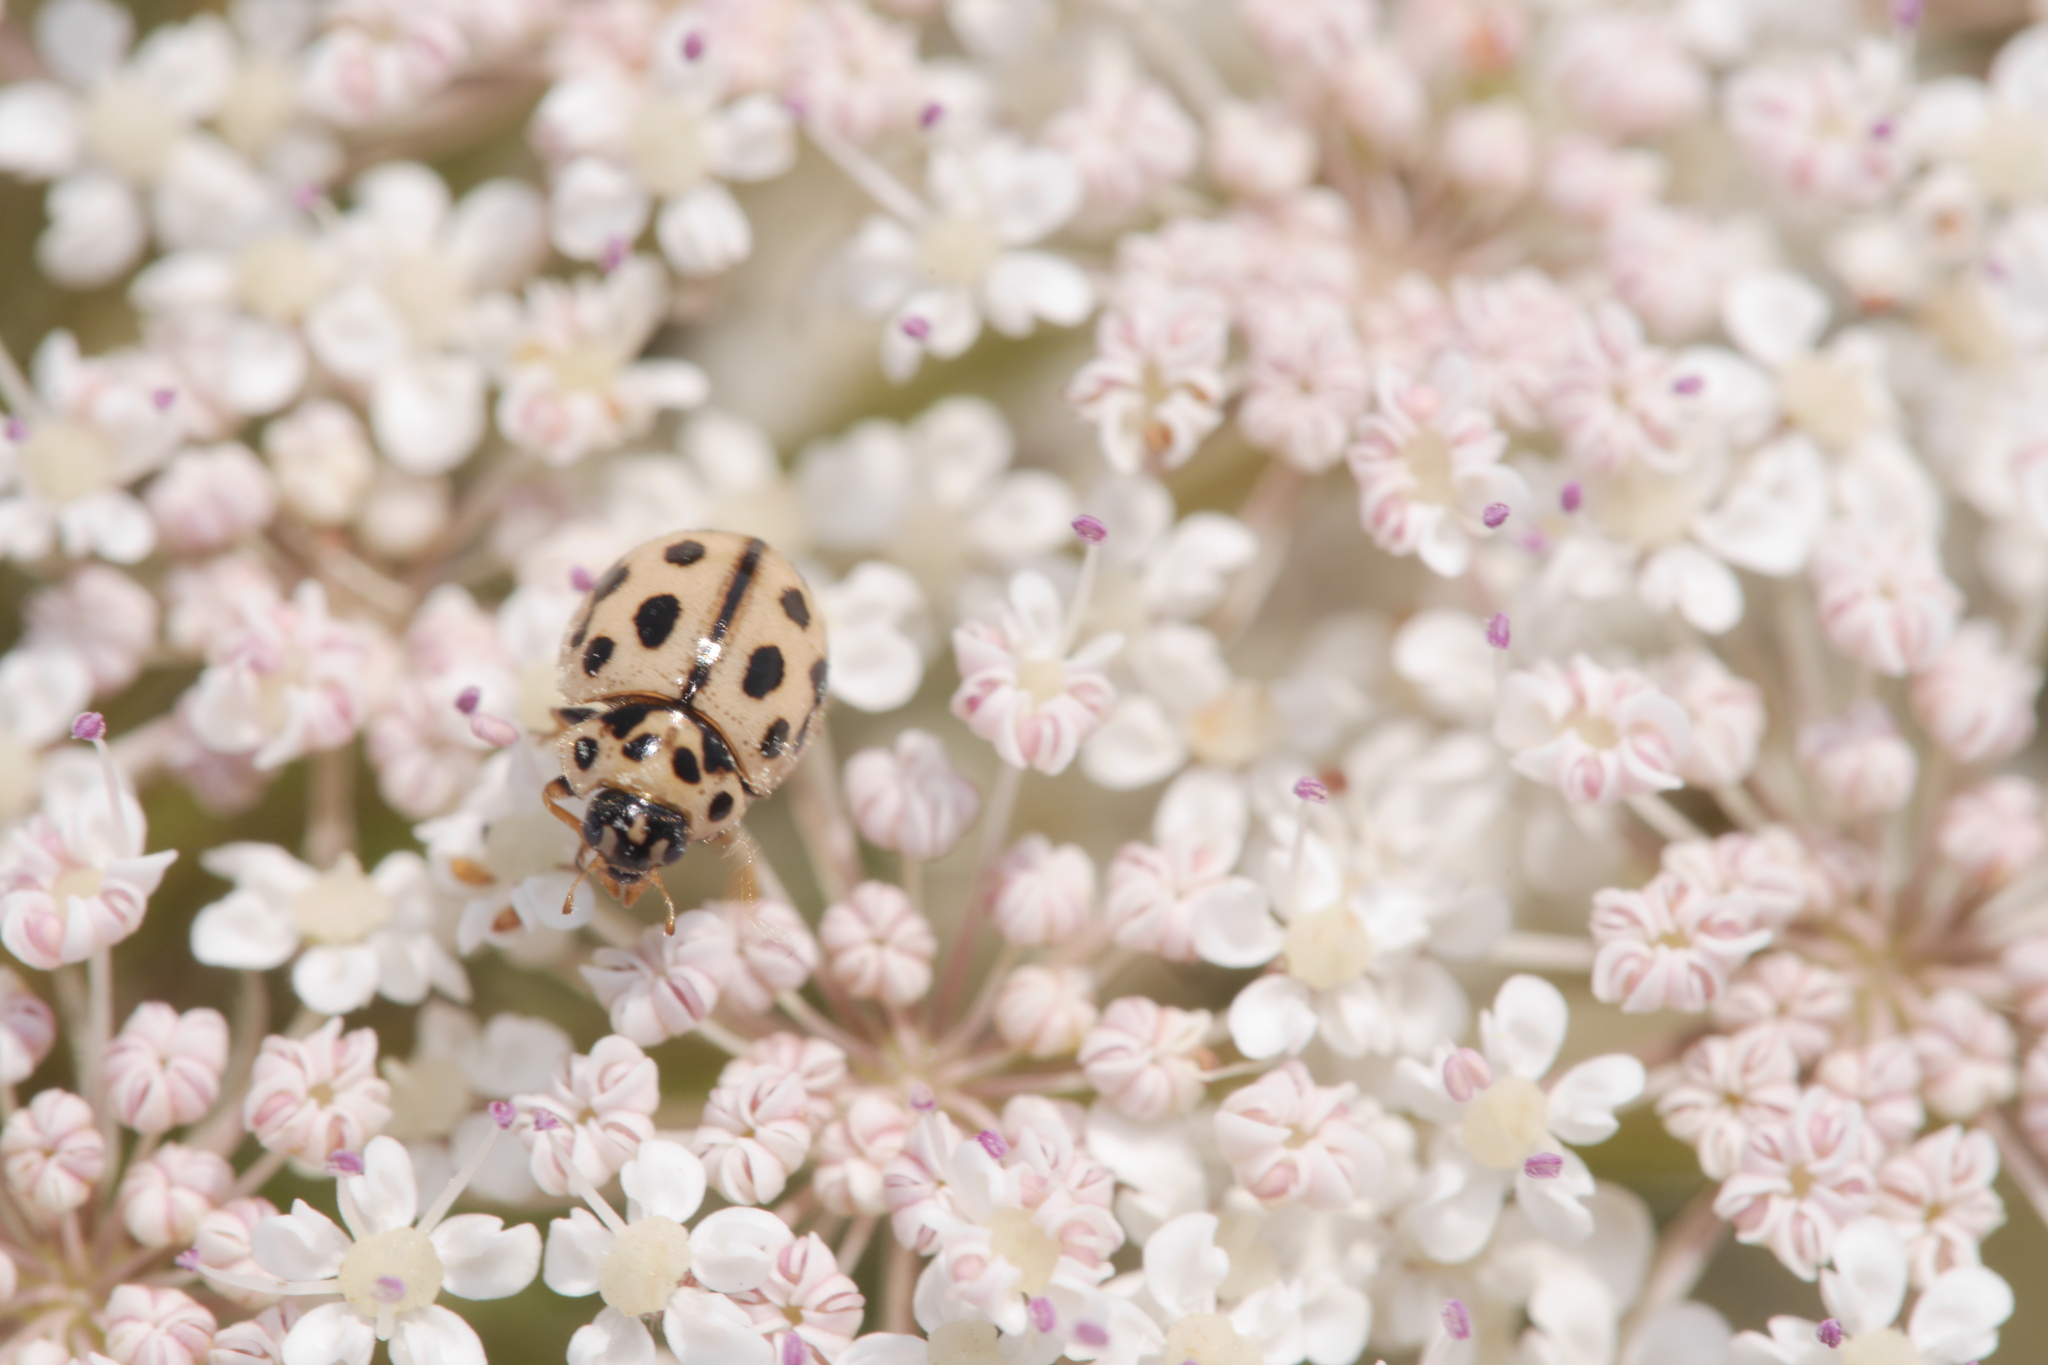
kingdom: Animalia
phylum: Arthropoda
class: Insecta
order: Coleoptera
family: Coccinellidae
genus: Tytthaspis
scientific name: Tytthaspis sedecimpunctata
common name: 16-spot ladybird
